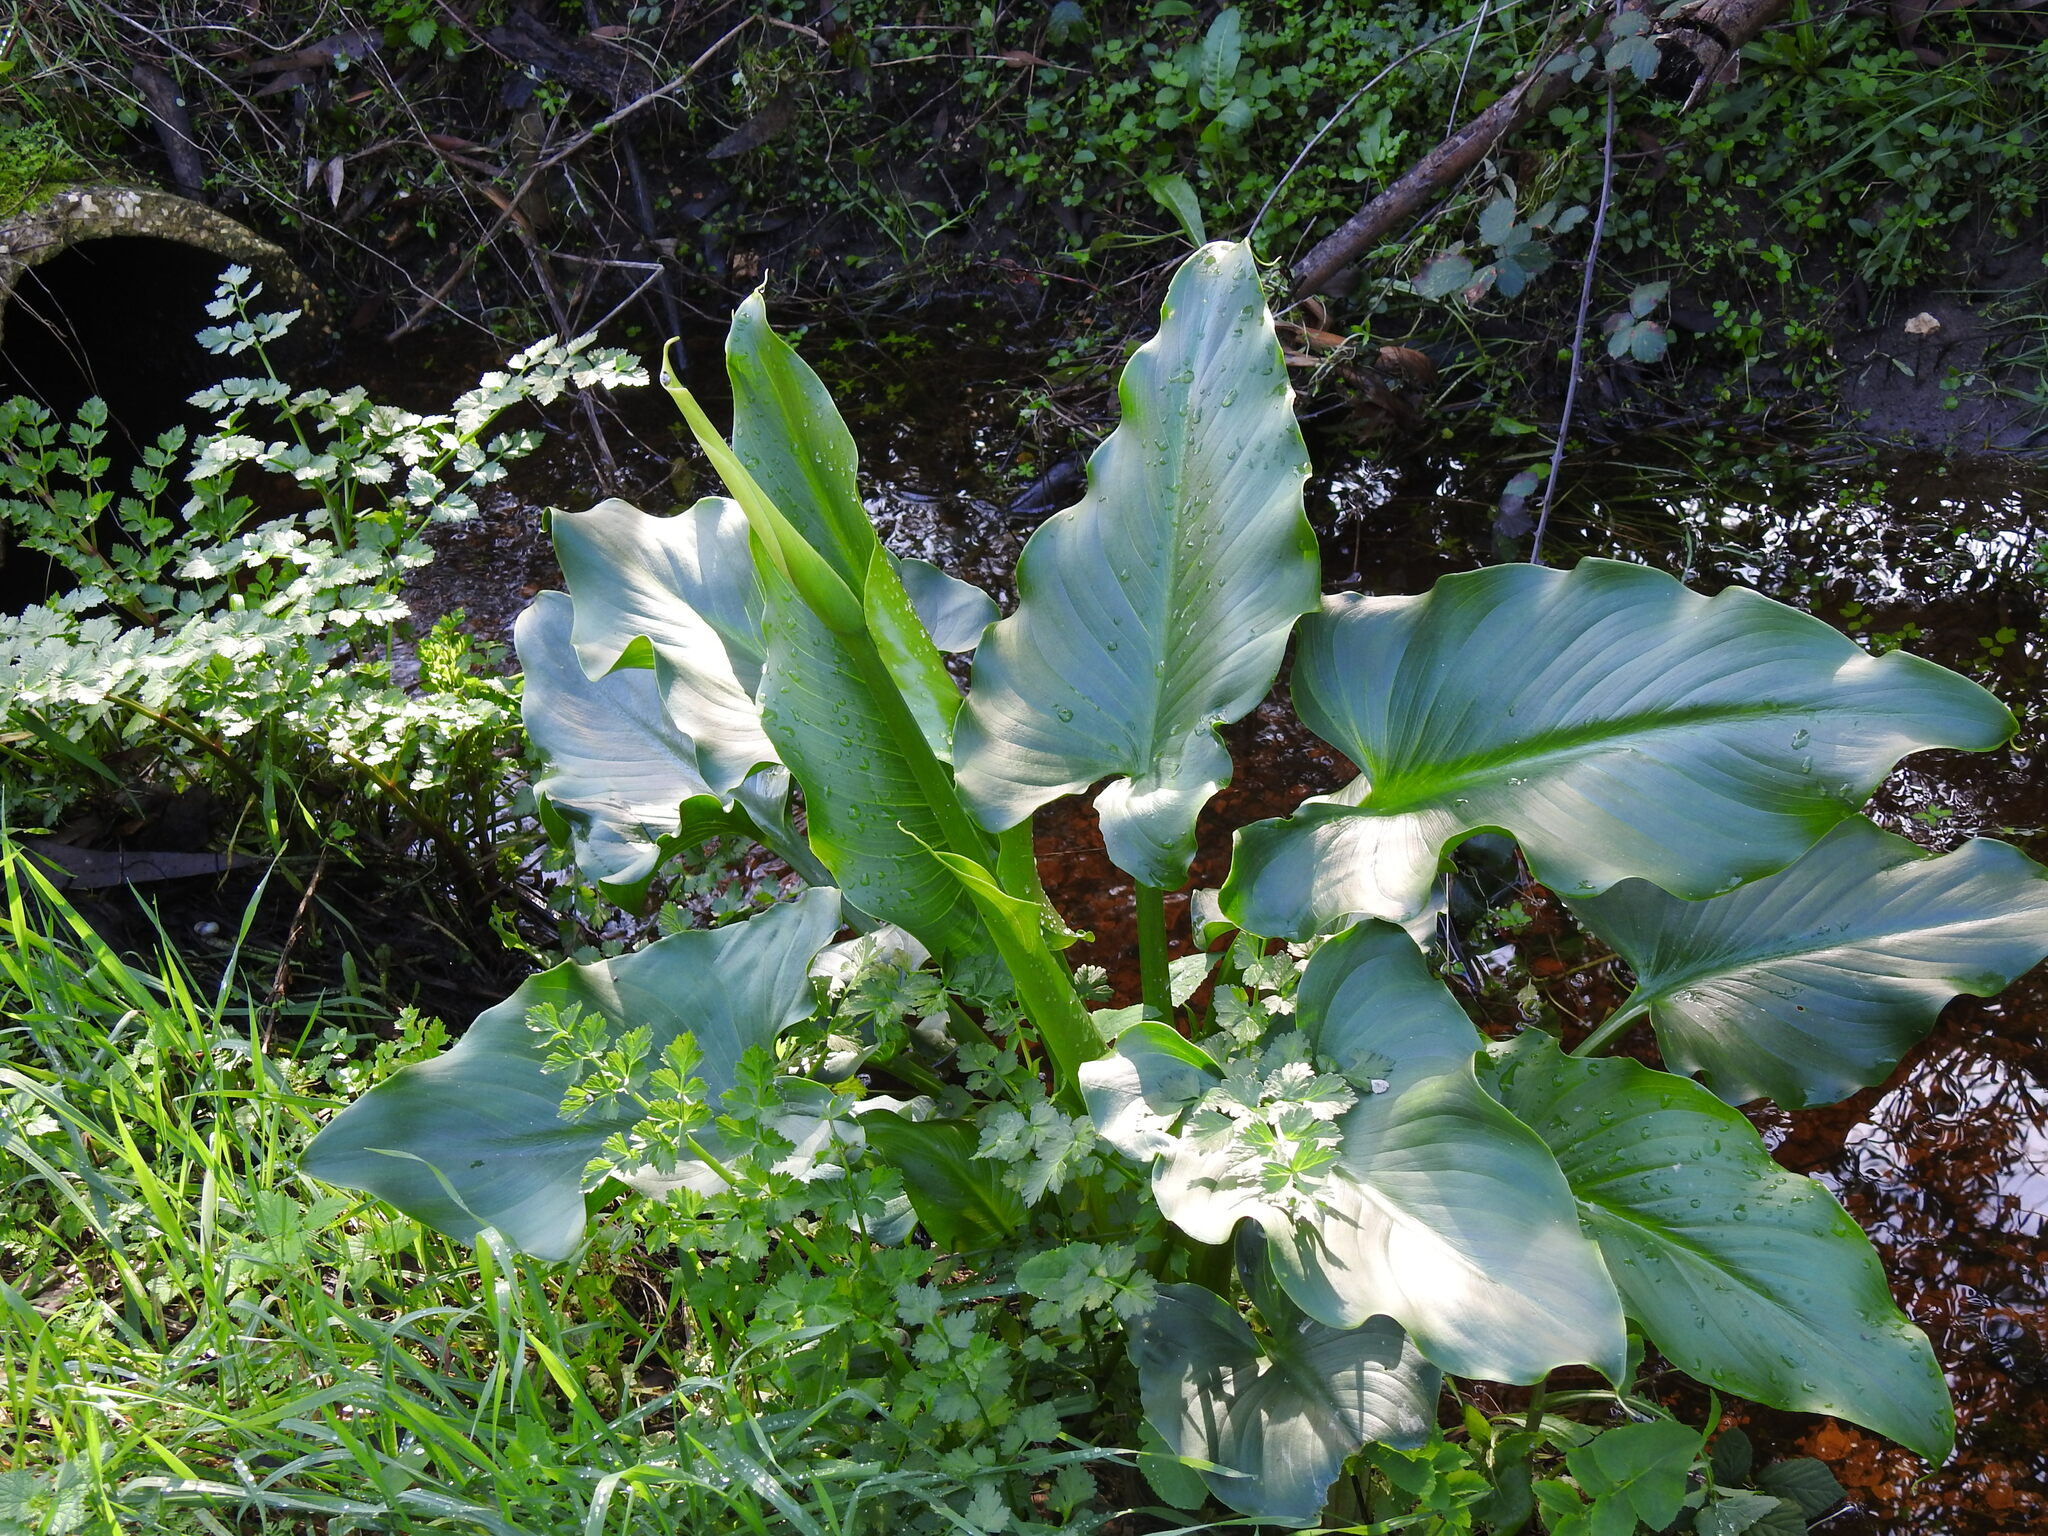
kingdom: Plantae
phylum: Tracheophyta
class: Liliopsida
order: Alismatales
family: Araceae
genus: Zantedeschia
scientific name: Zantedeschia aethiopica
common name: Altar-lily
